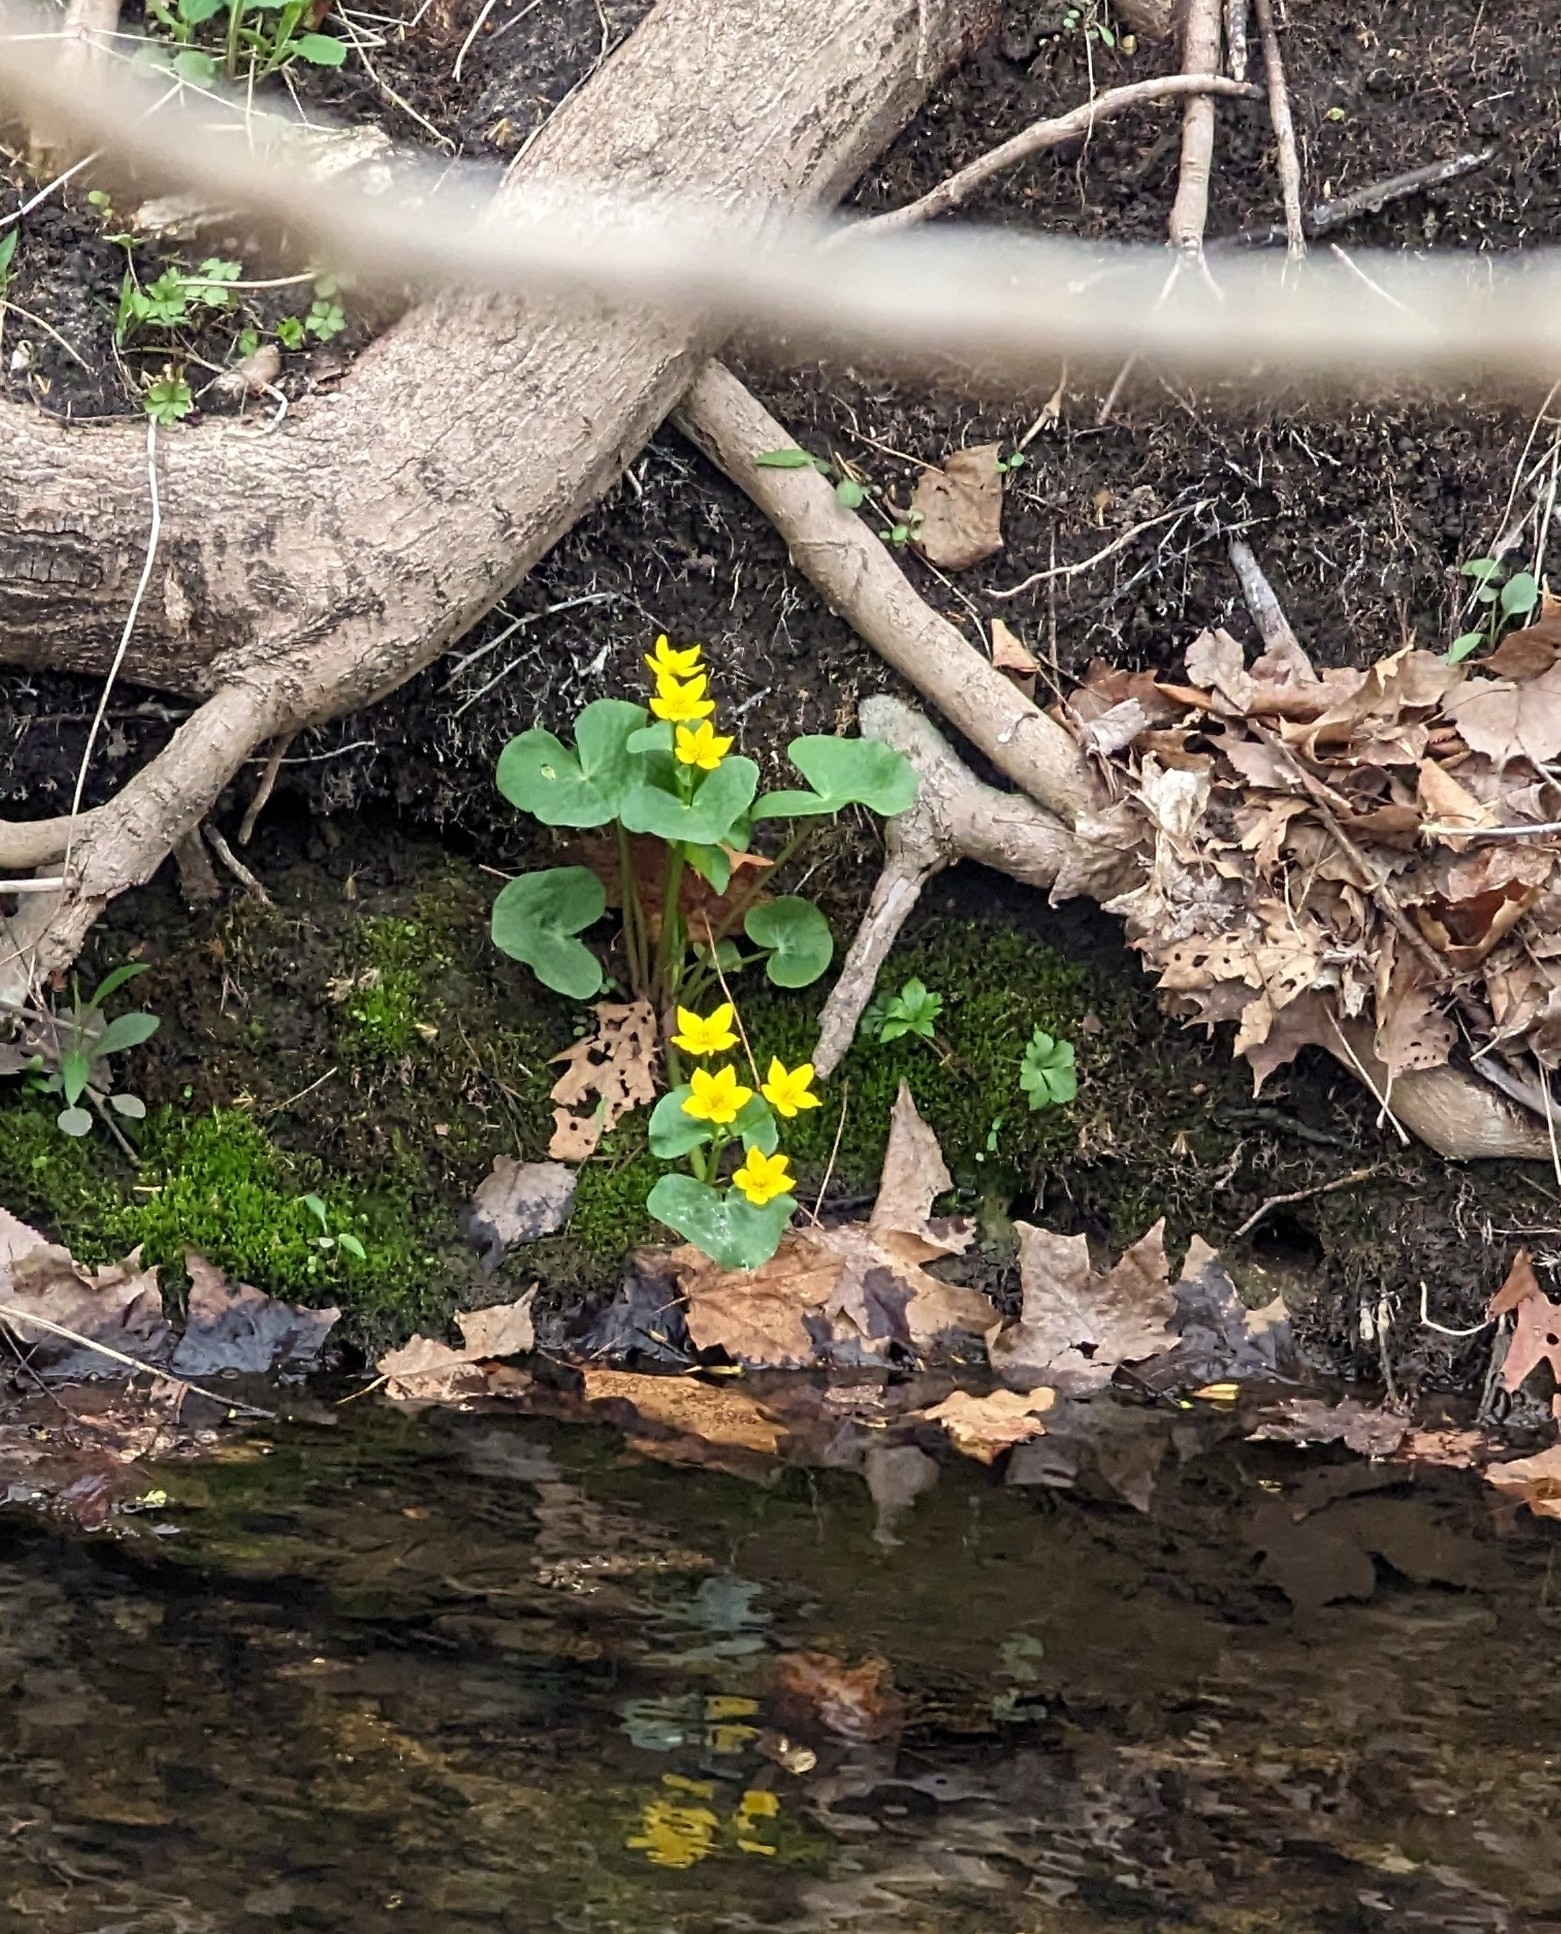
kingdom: Plantae
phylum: Tracheophyta
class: Magnoliopsida
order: Ranunculales
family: Ranunculaceae
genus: Caltha
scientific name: Caltha palustris
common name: Marsh marigold
